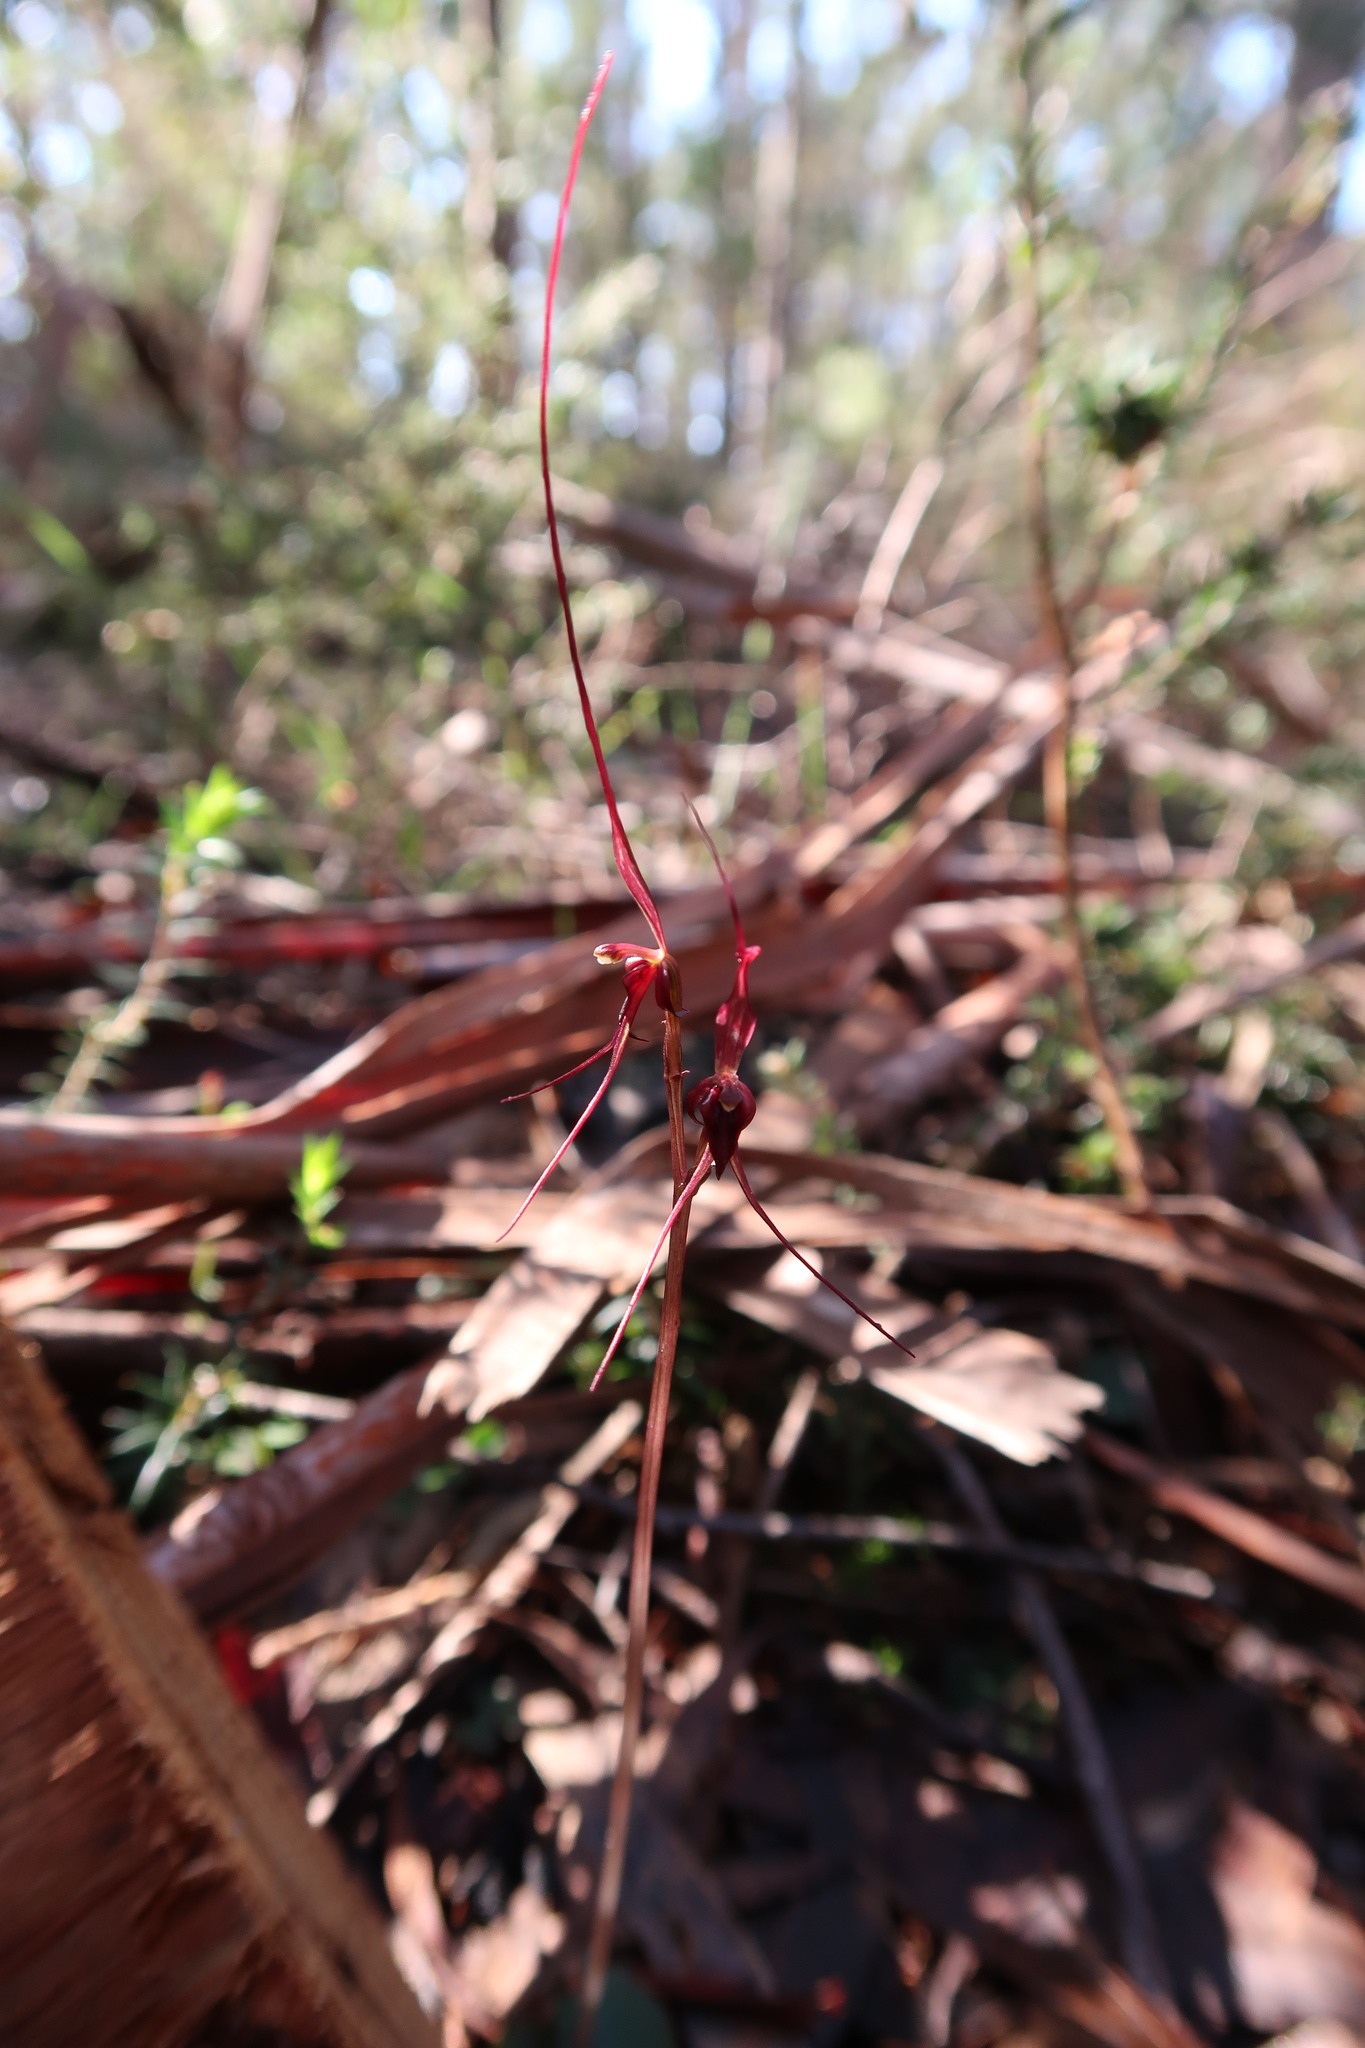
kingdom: Plantae
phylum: Tracheophyta
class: Liliopsida
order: Asparagales
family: Orchidaceae
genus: Acianthus
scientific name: Acianthus caudatus
